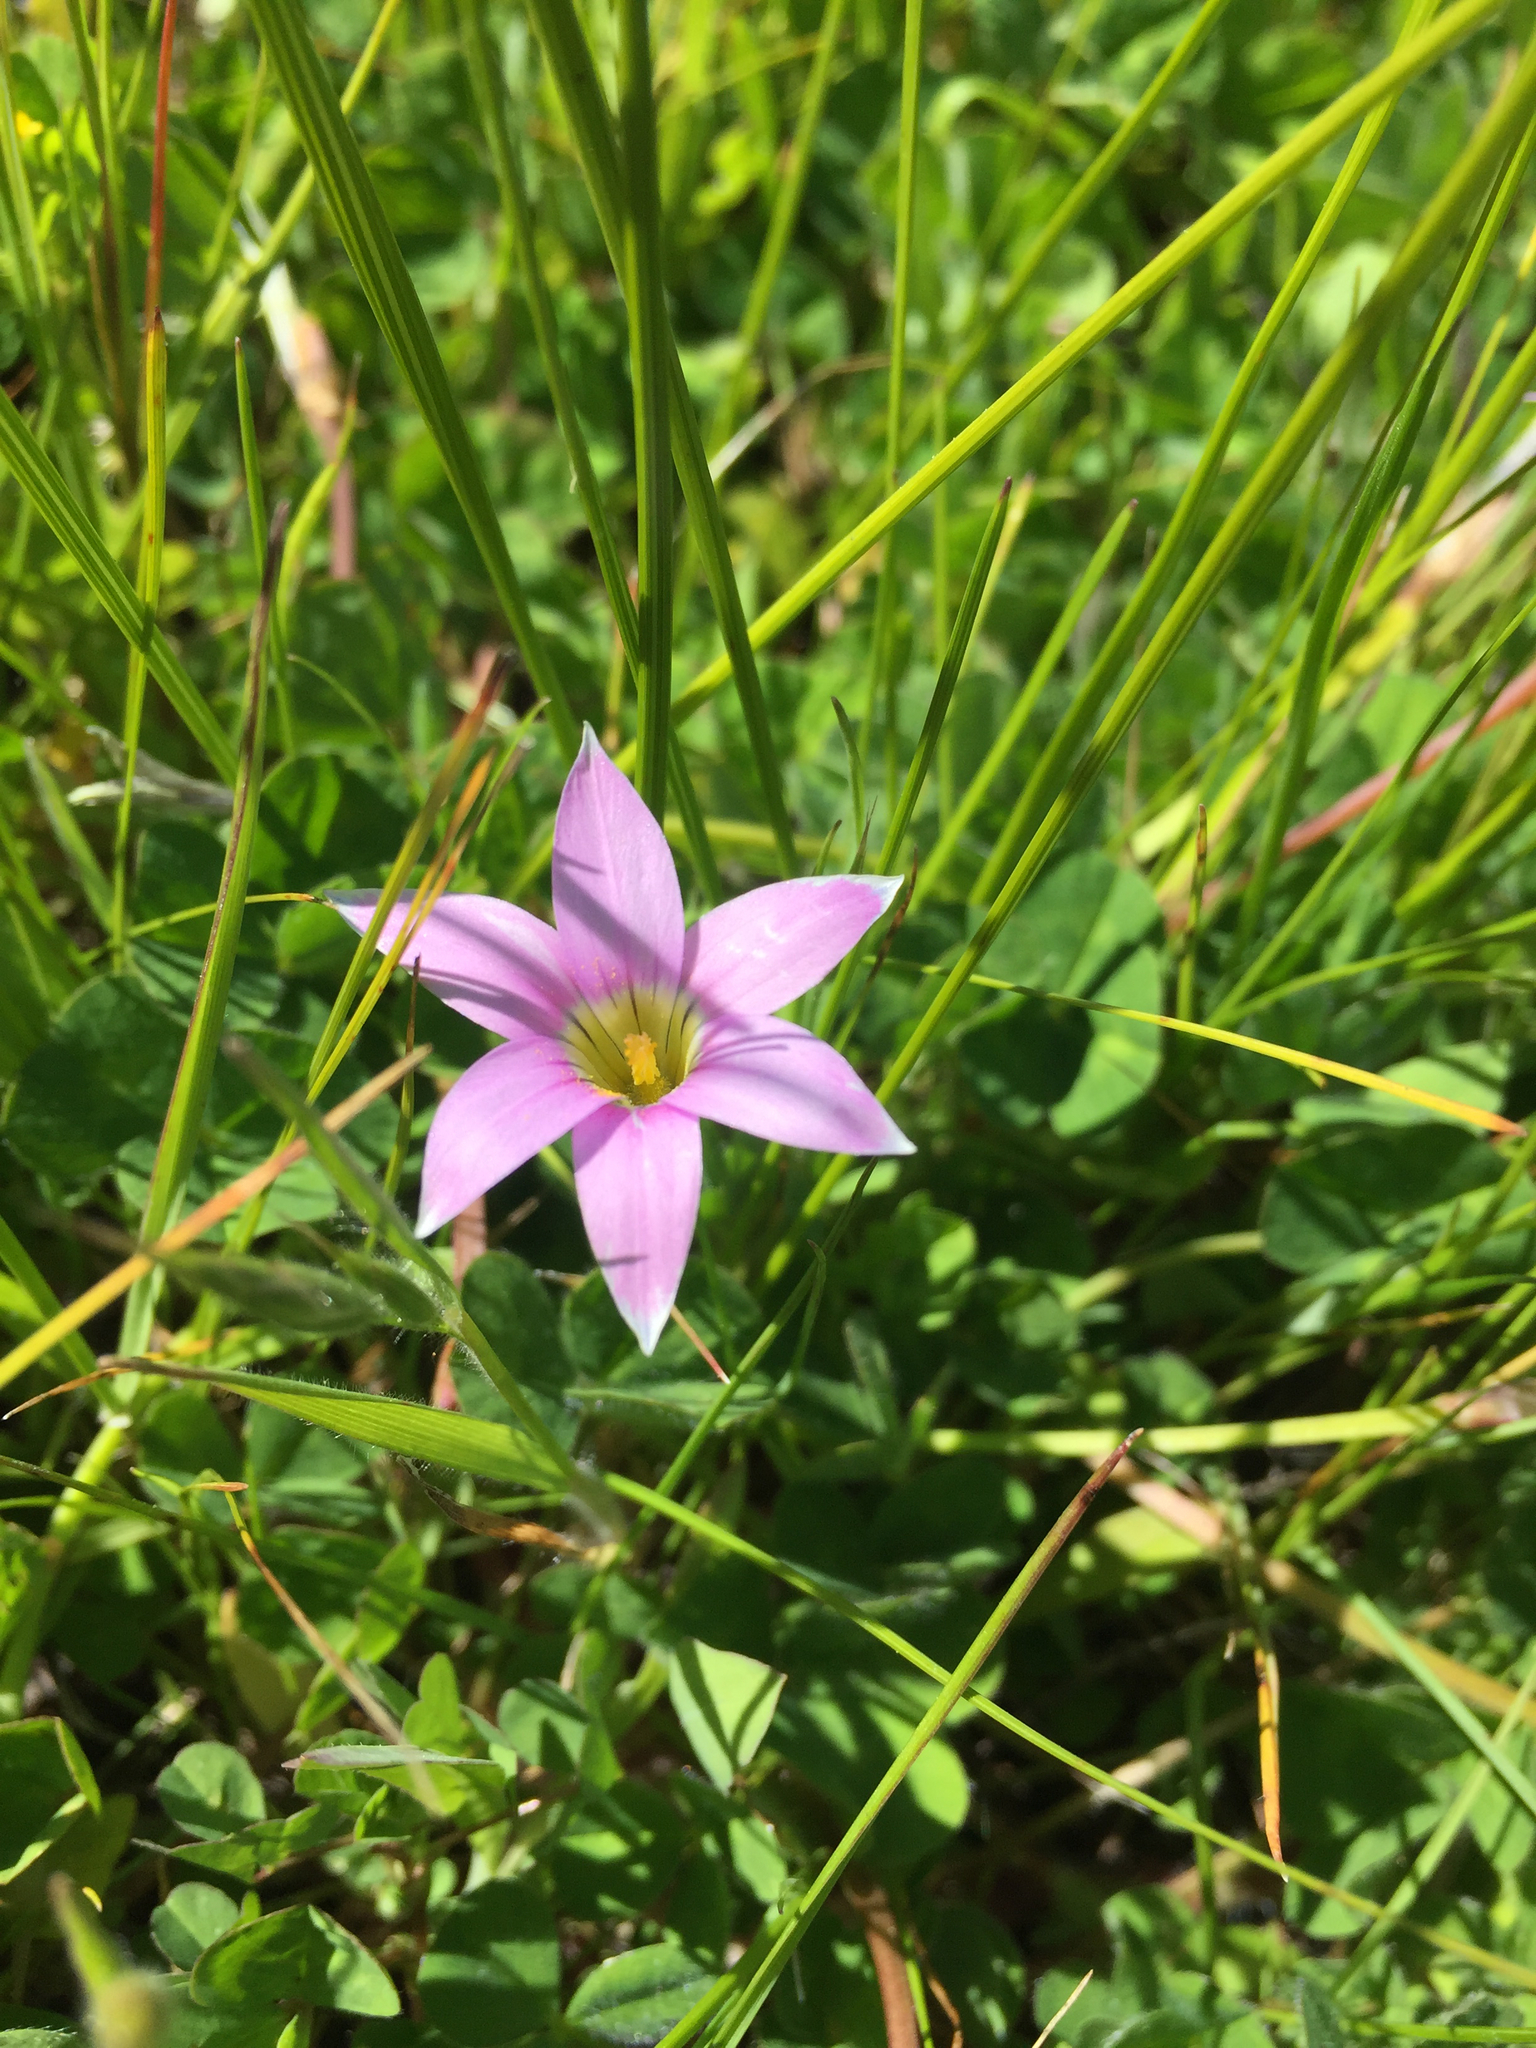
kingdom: Plantae
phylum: Tracheophyta
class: Liliopsida
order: Asparagales
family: Iridaceae
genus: Romulea
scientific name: Romulea rosea
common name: Oniongrass
